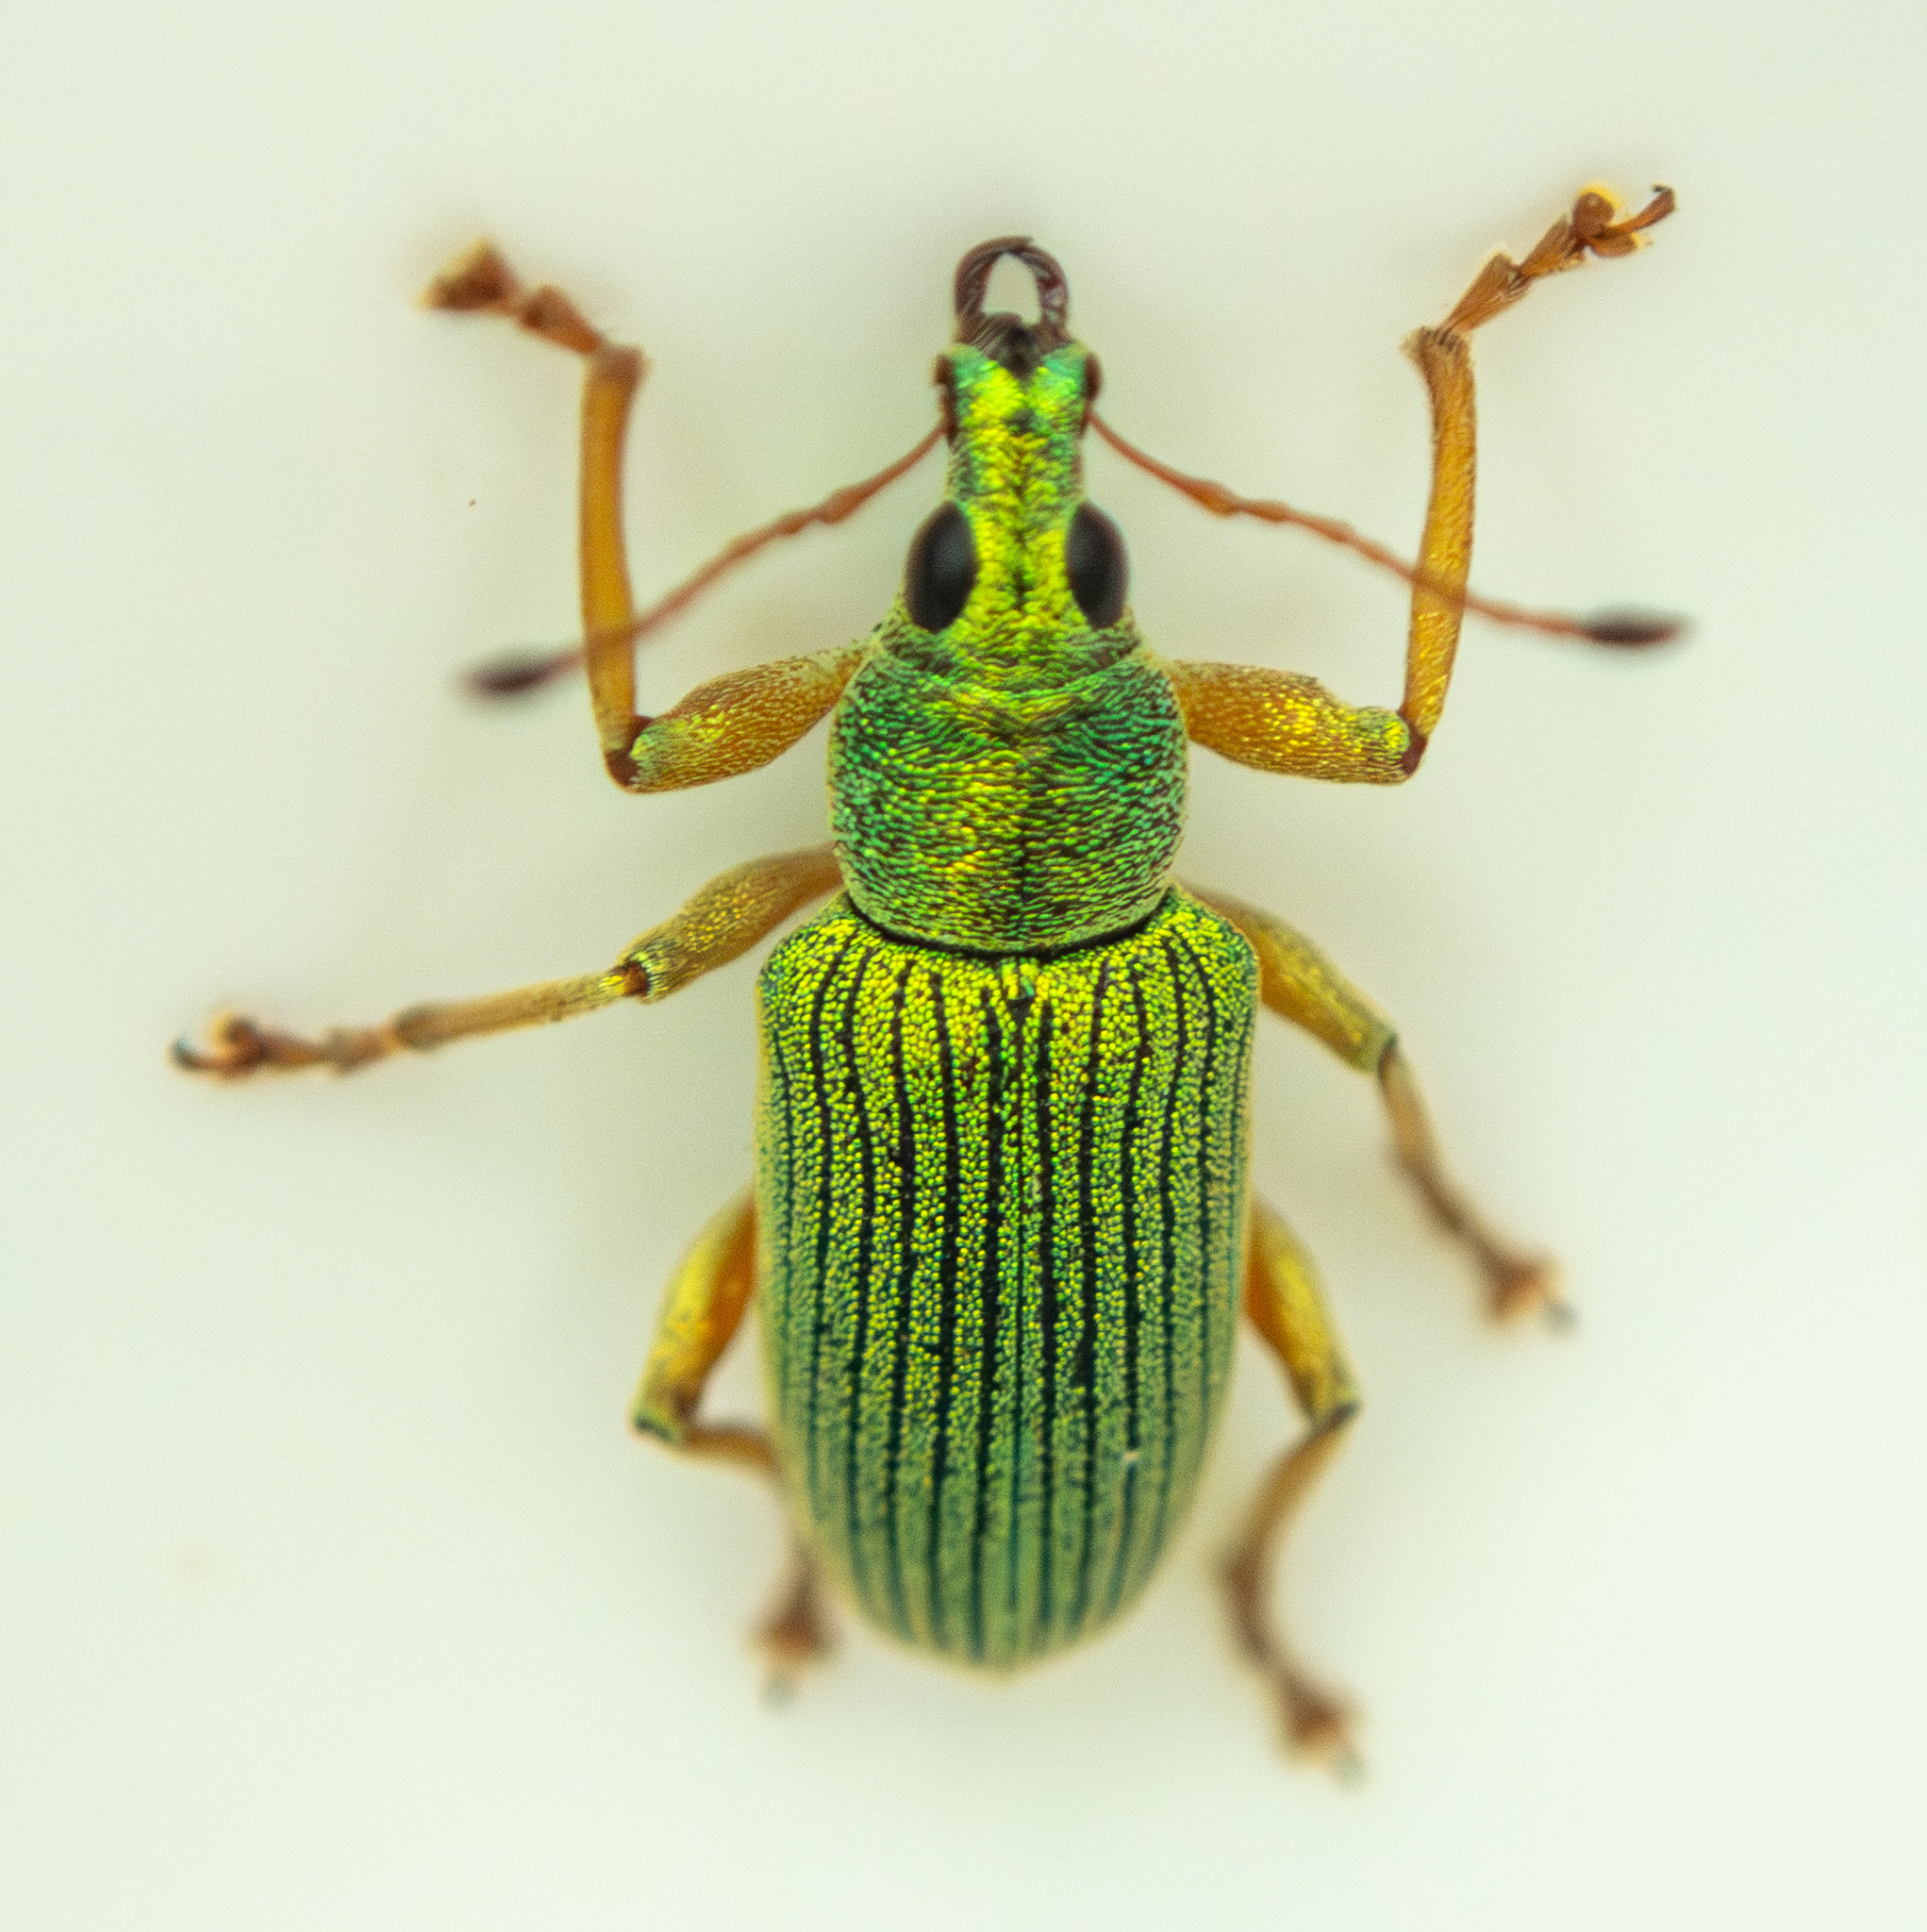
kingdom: Animalia
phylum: Arthropoda
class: Insecta
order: Coleoptera
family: Curculionidae
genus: Polydrusus
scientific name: Polydrusus formosus
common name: Weevil
